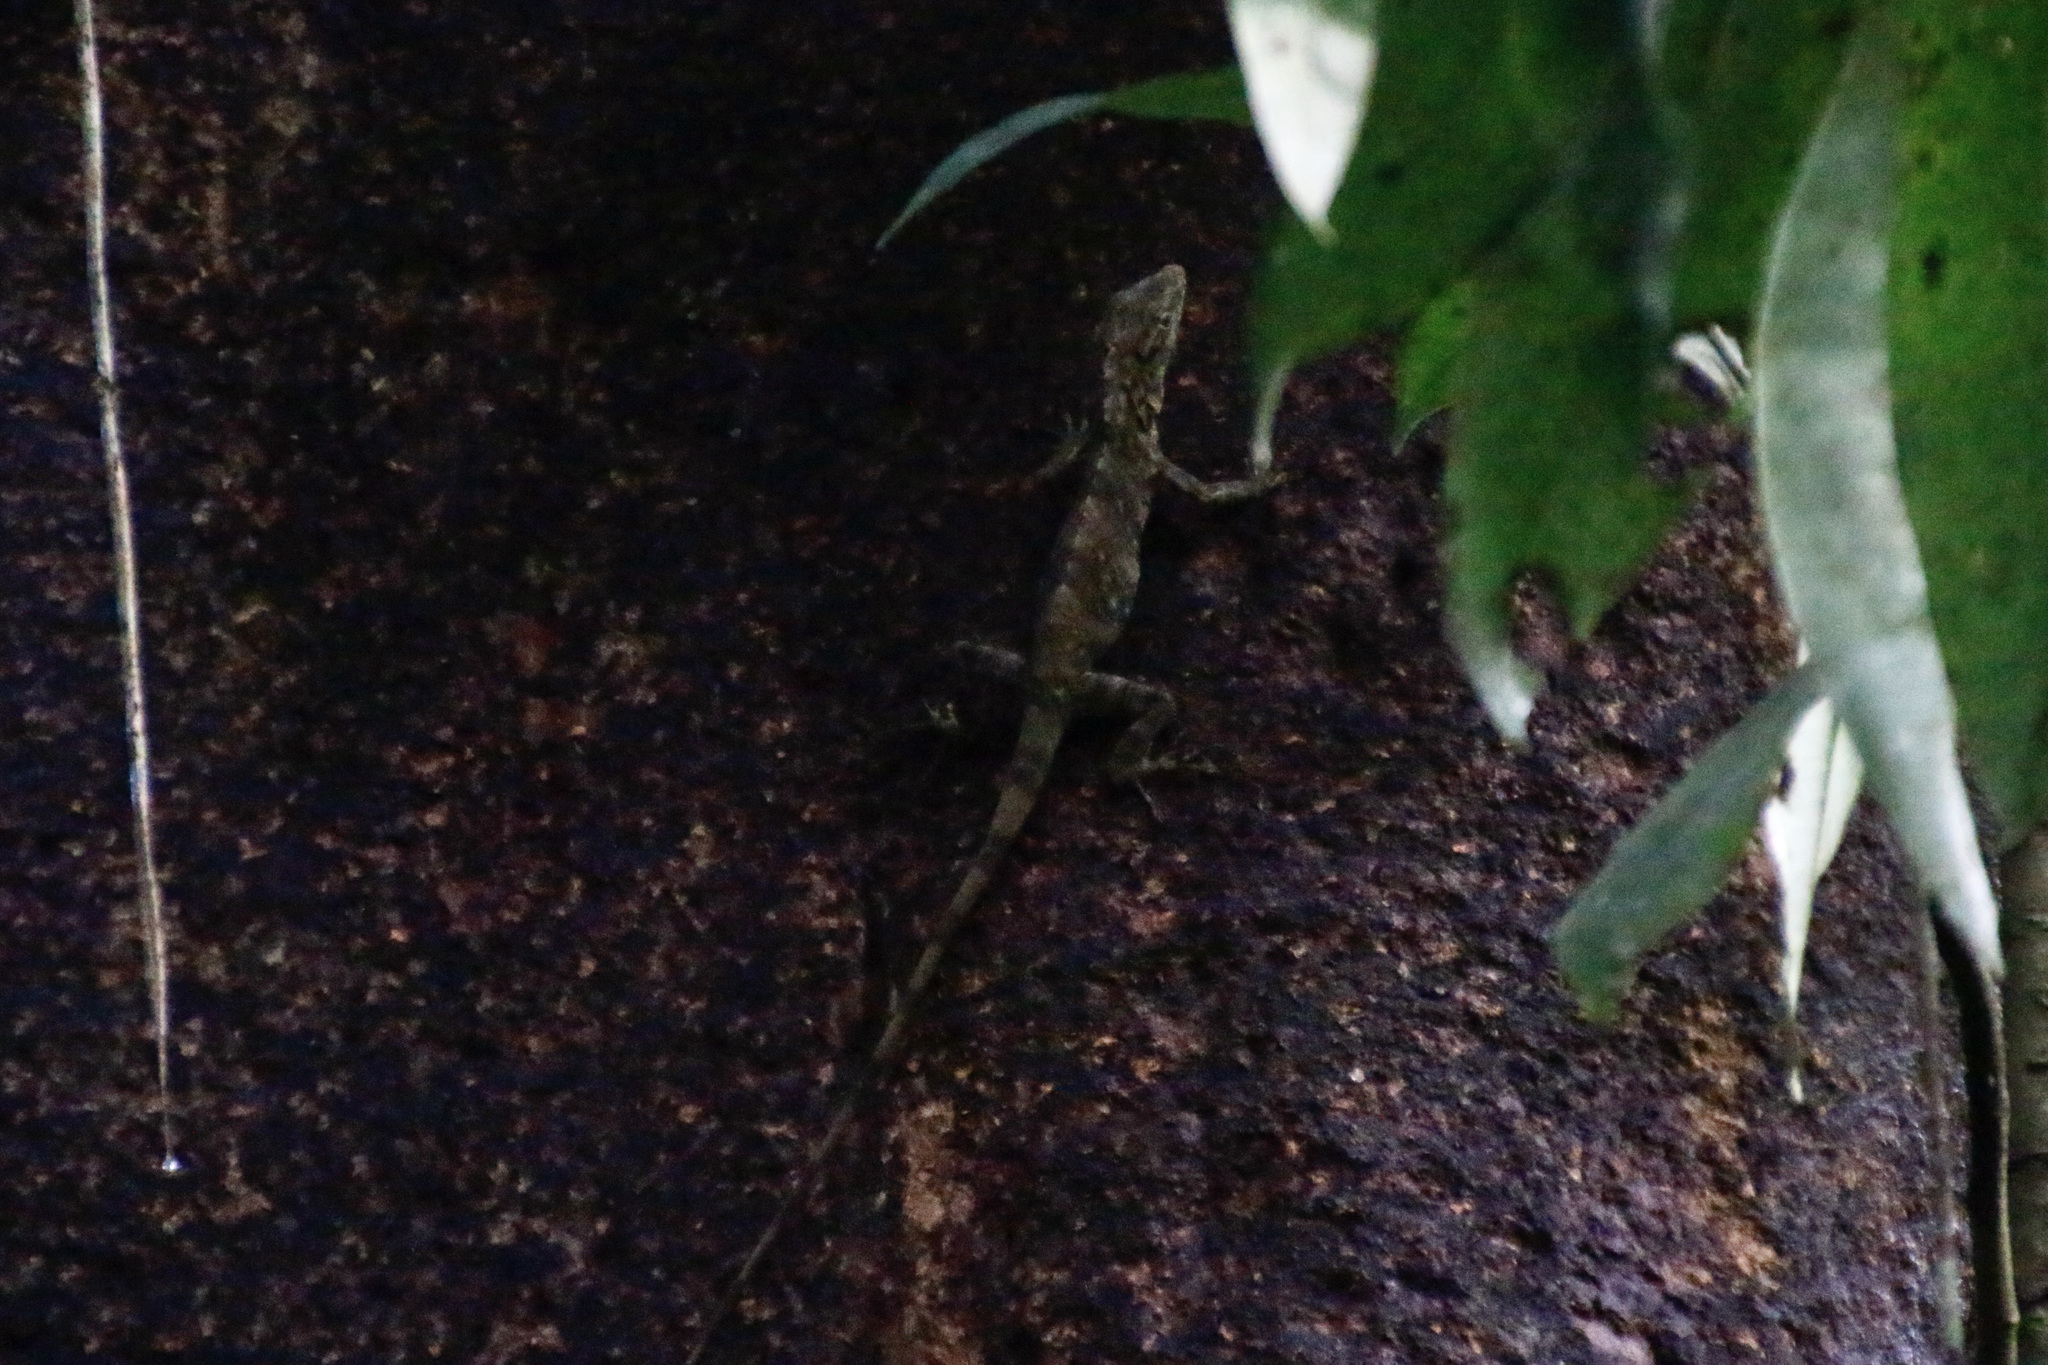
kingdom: Animalia
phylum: Chordata
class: Squamata
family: Dactyloidae
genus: Anolis
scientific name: Anolis insignis
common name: Decorated anole
